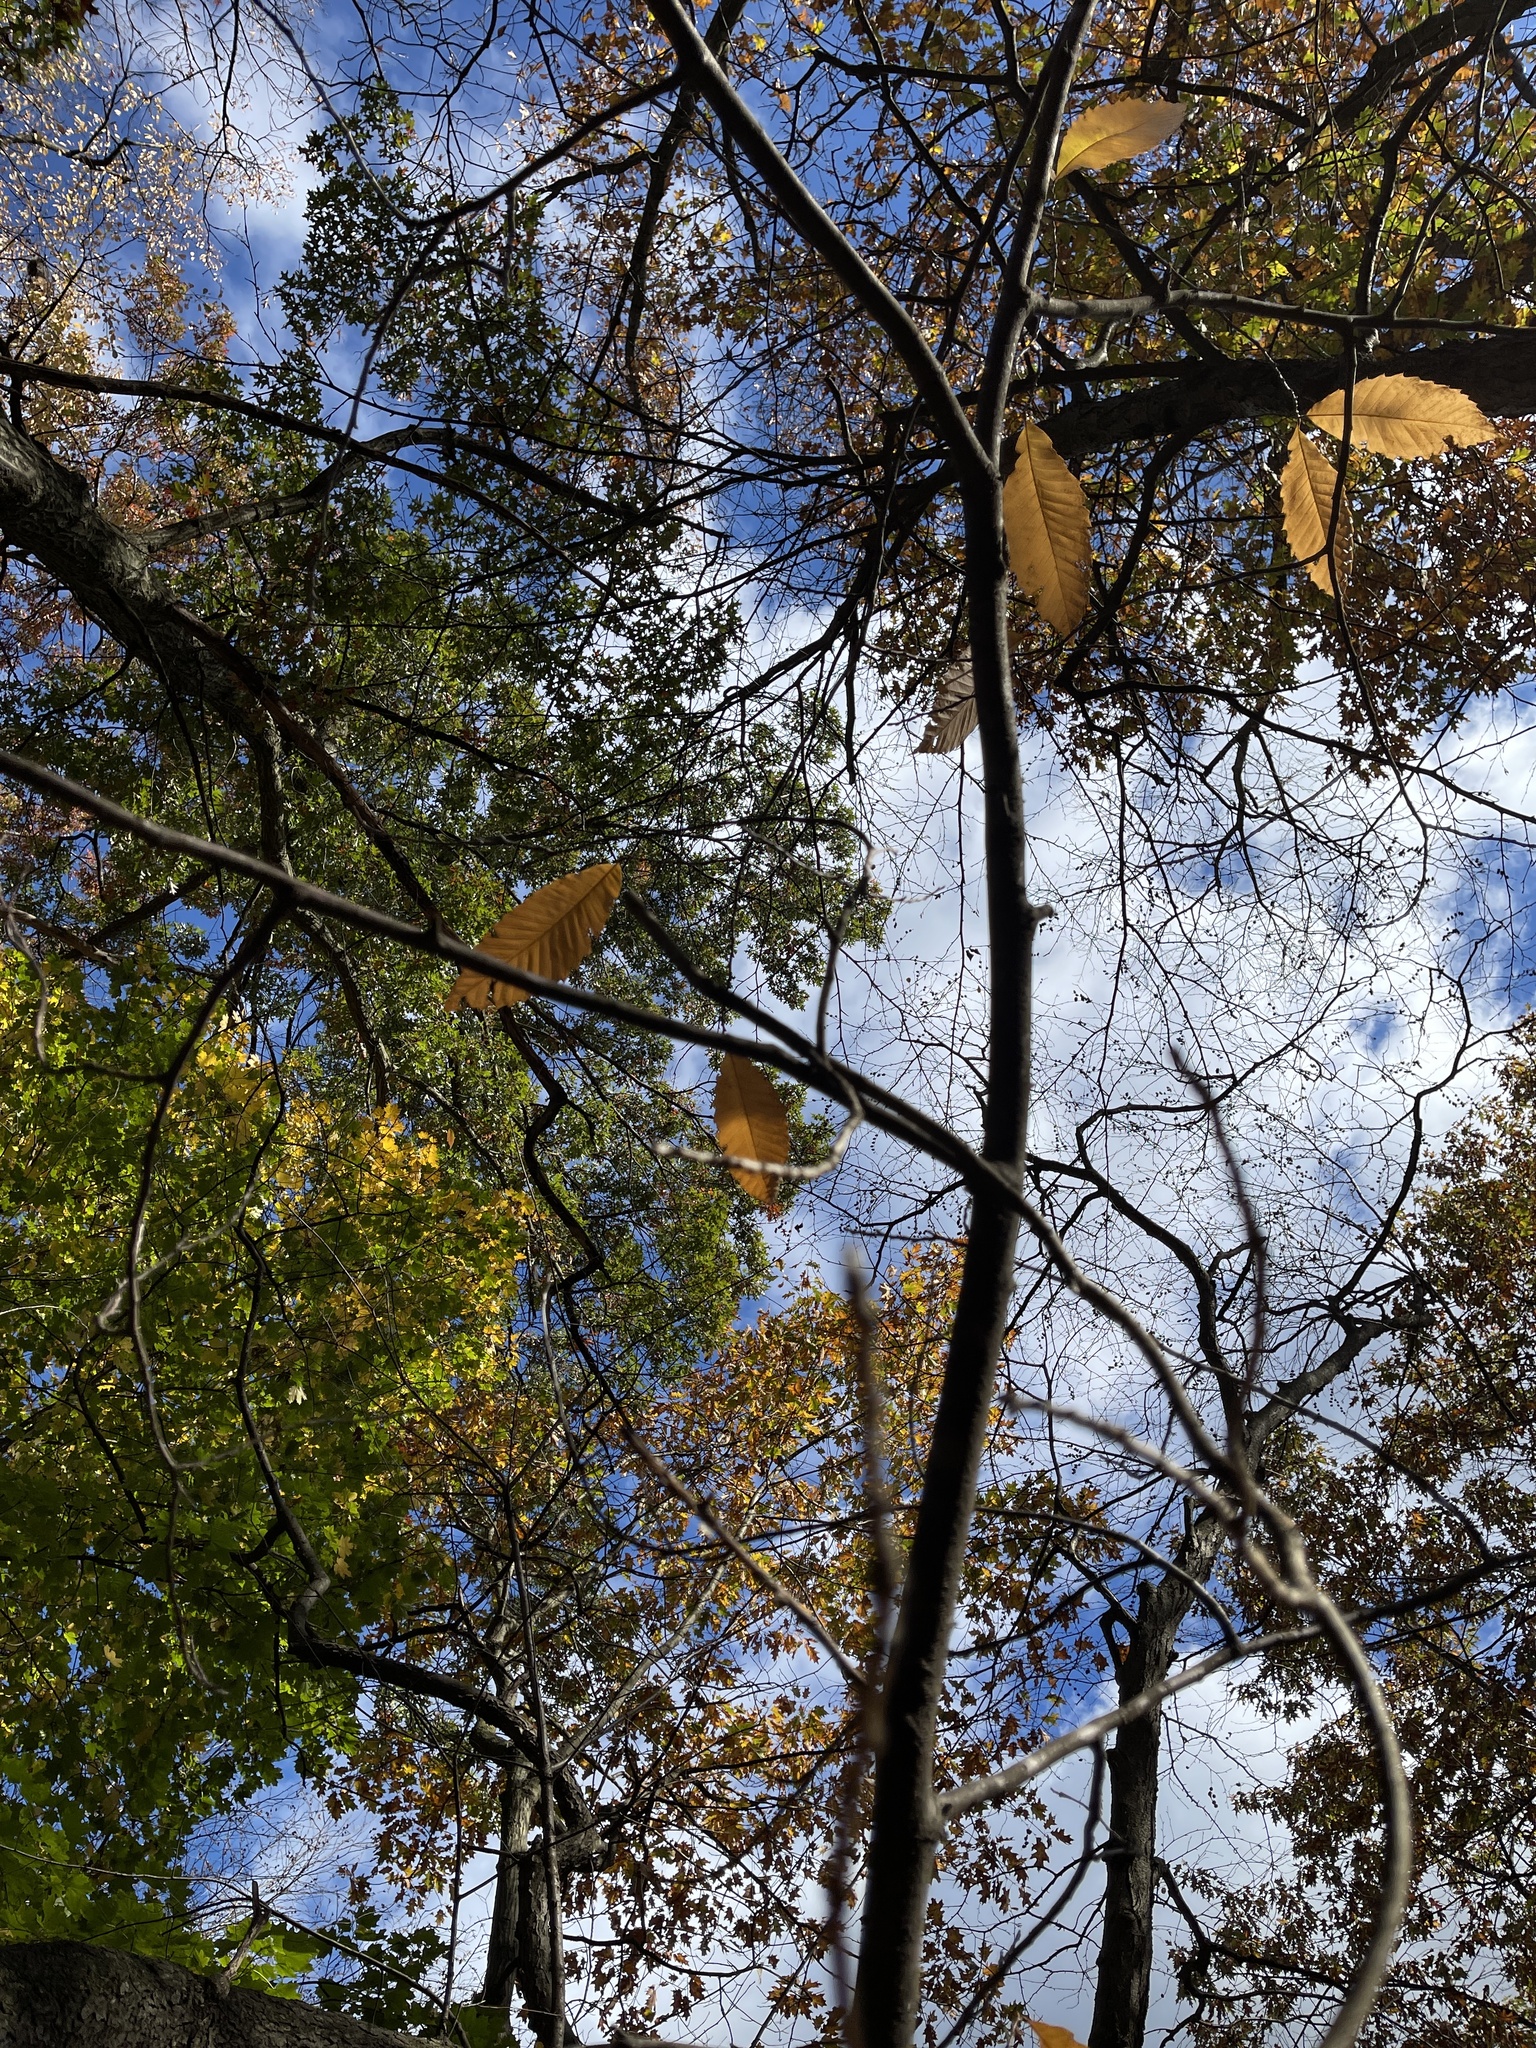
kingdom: Plantae
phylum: Tracheophyta
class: Magnoliopsida
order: Fagales
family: Fagaceae
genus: Castanea
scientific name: Castanea dentata
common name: American chestnut
